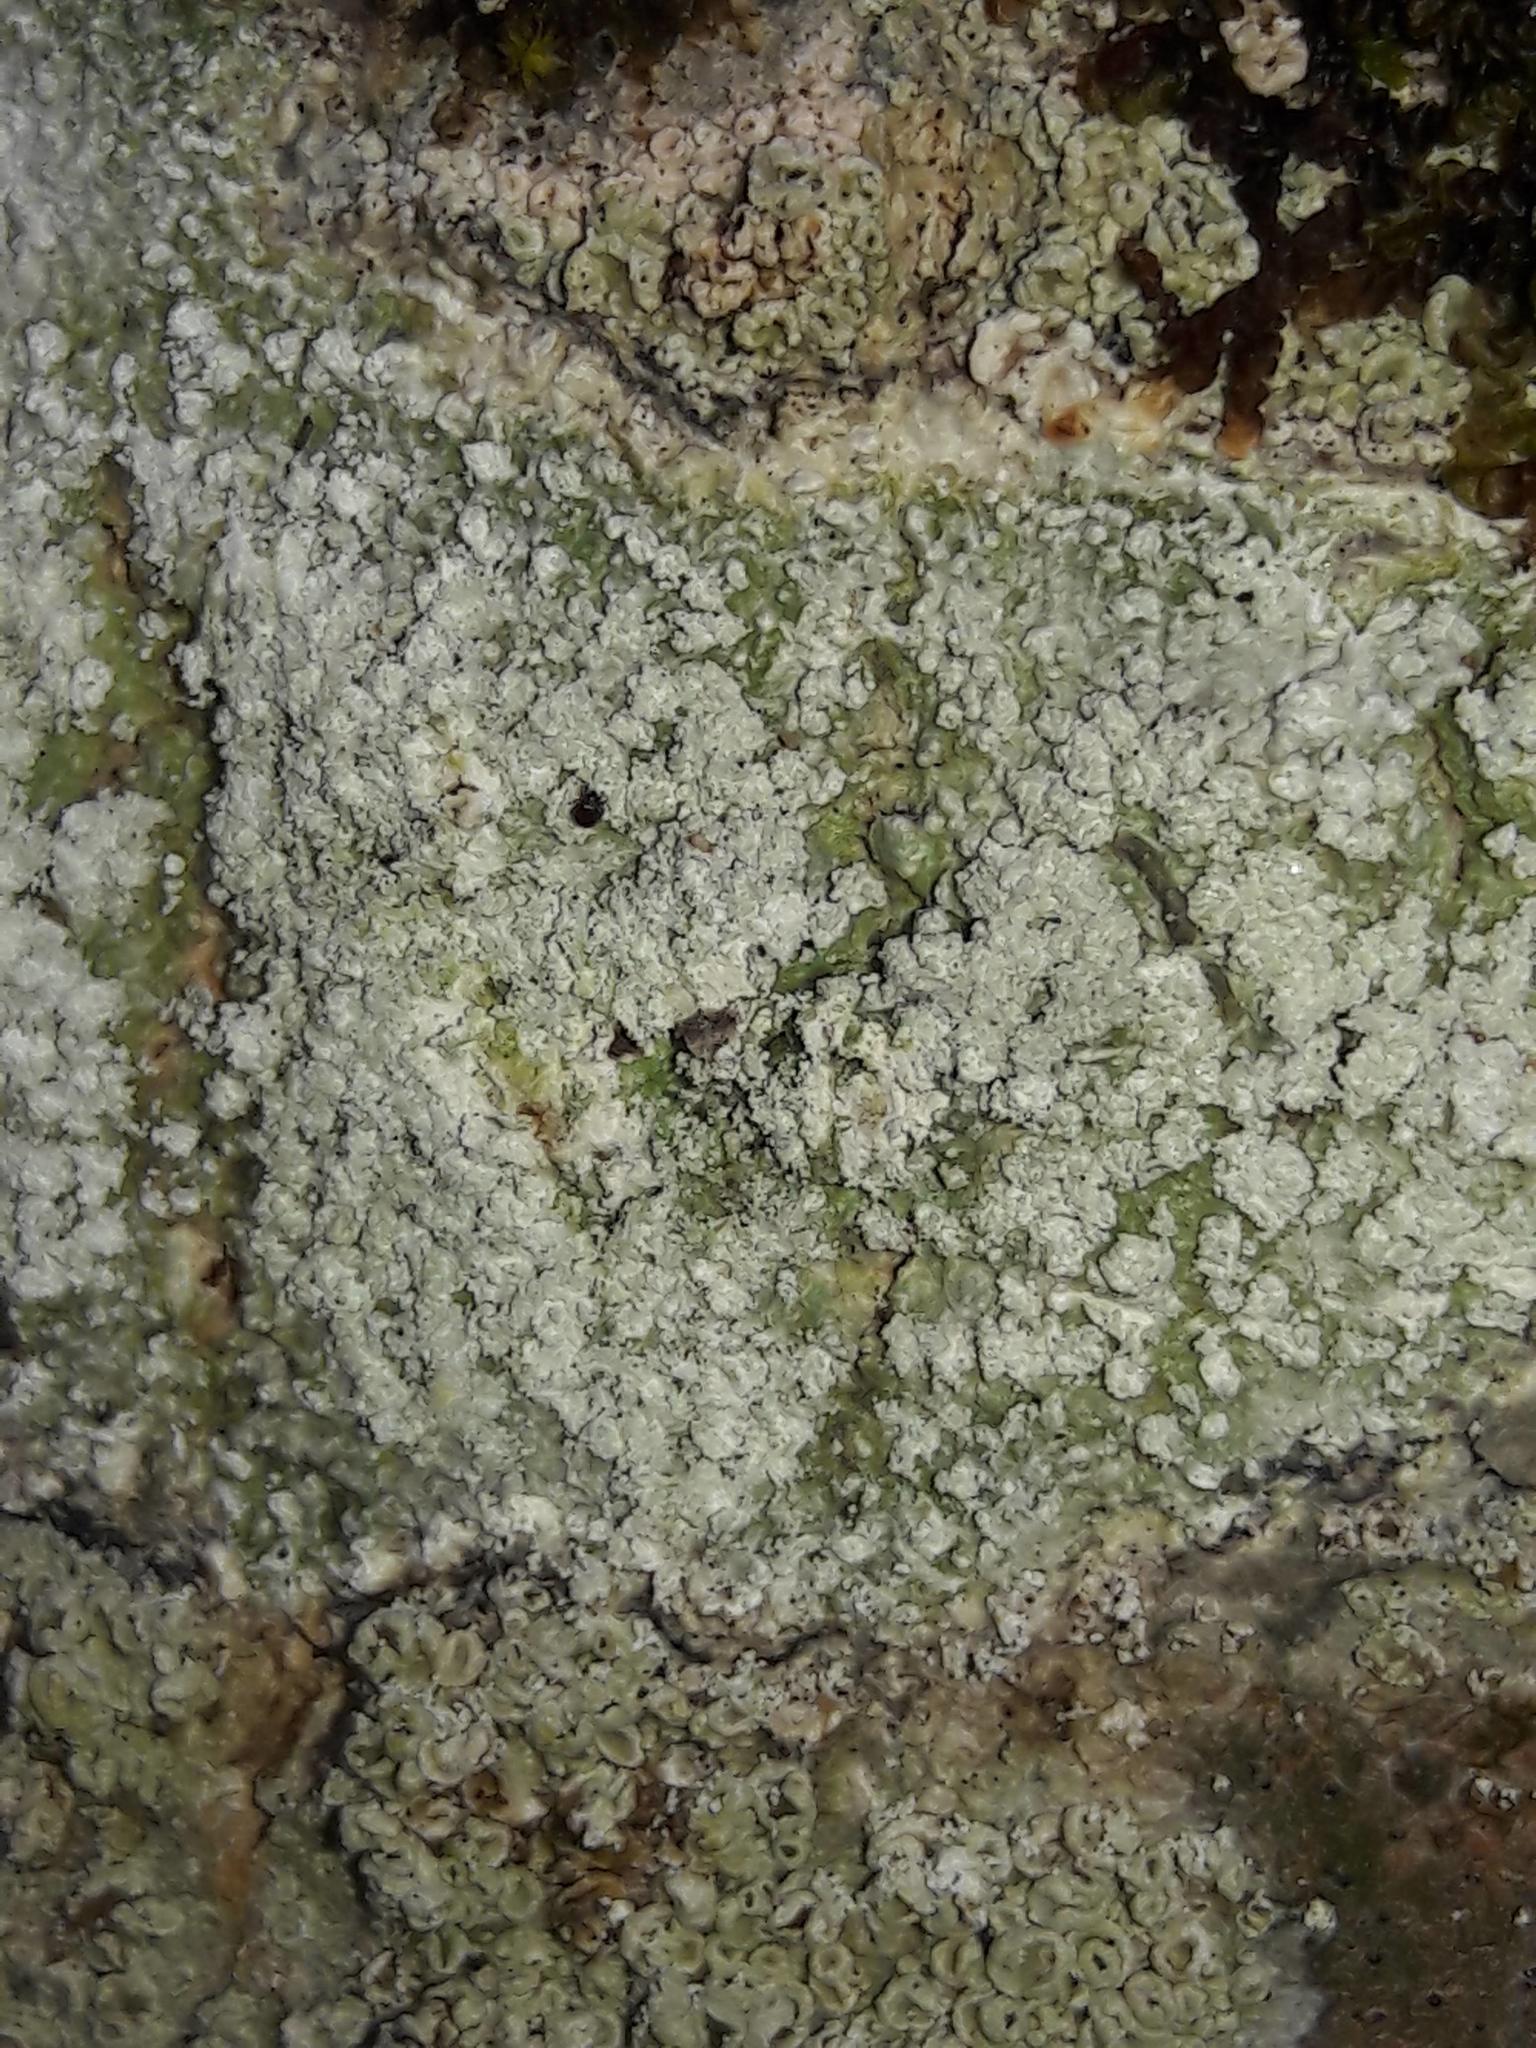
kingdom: Fungi
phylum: Ascomycota
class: Lecanoromycetes
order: Pertusariales
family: Pertusariaceae
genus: Lepra
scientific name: Lepra amara
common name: Bitter wart lichen
